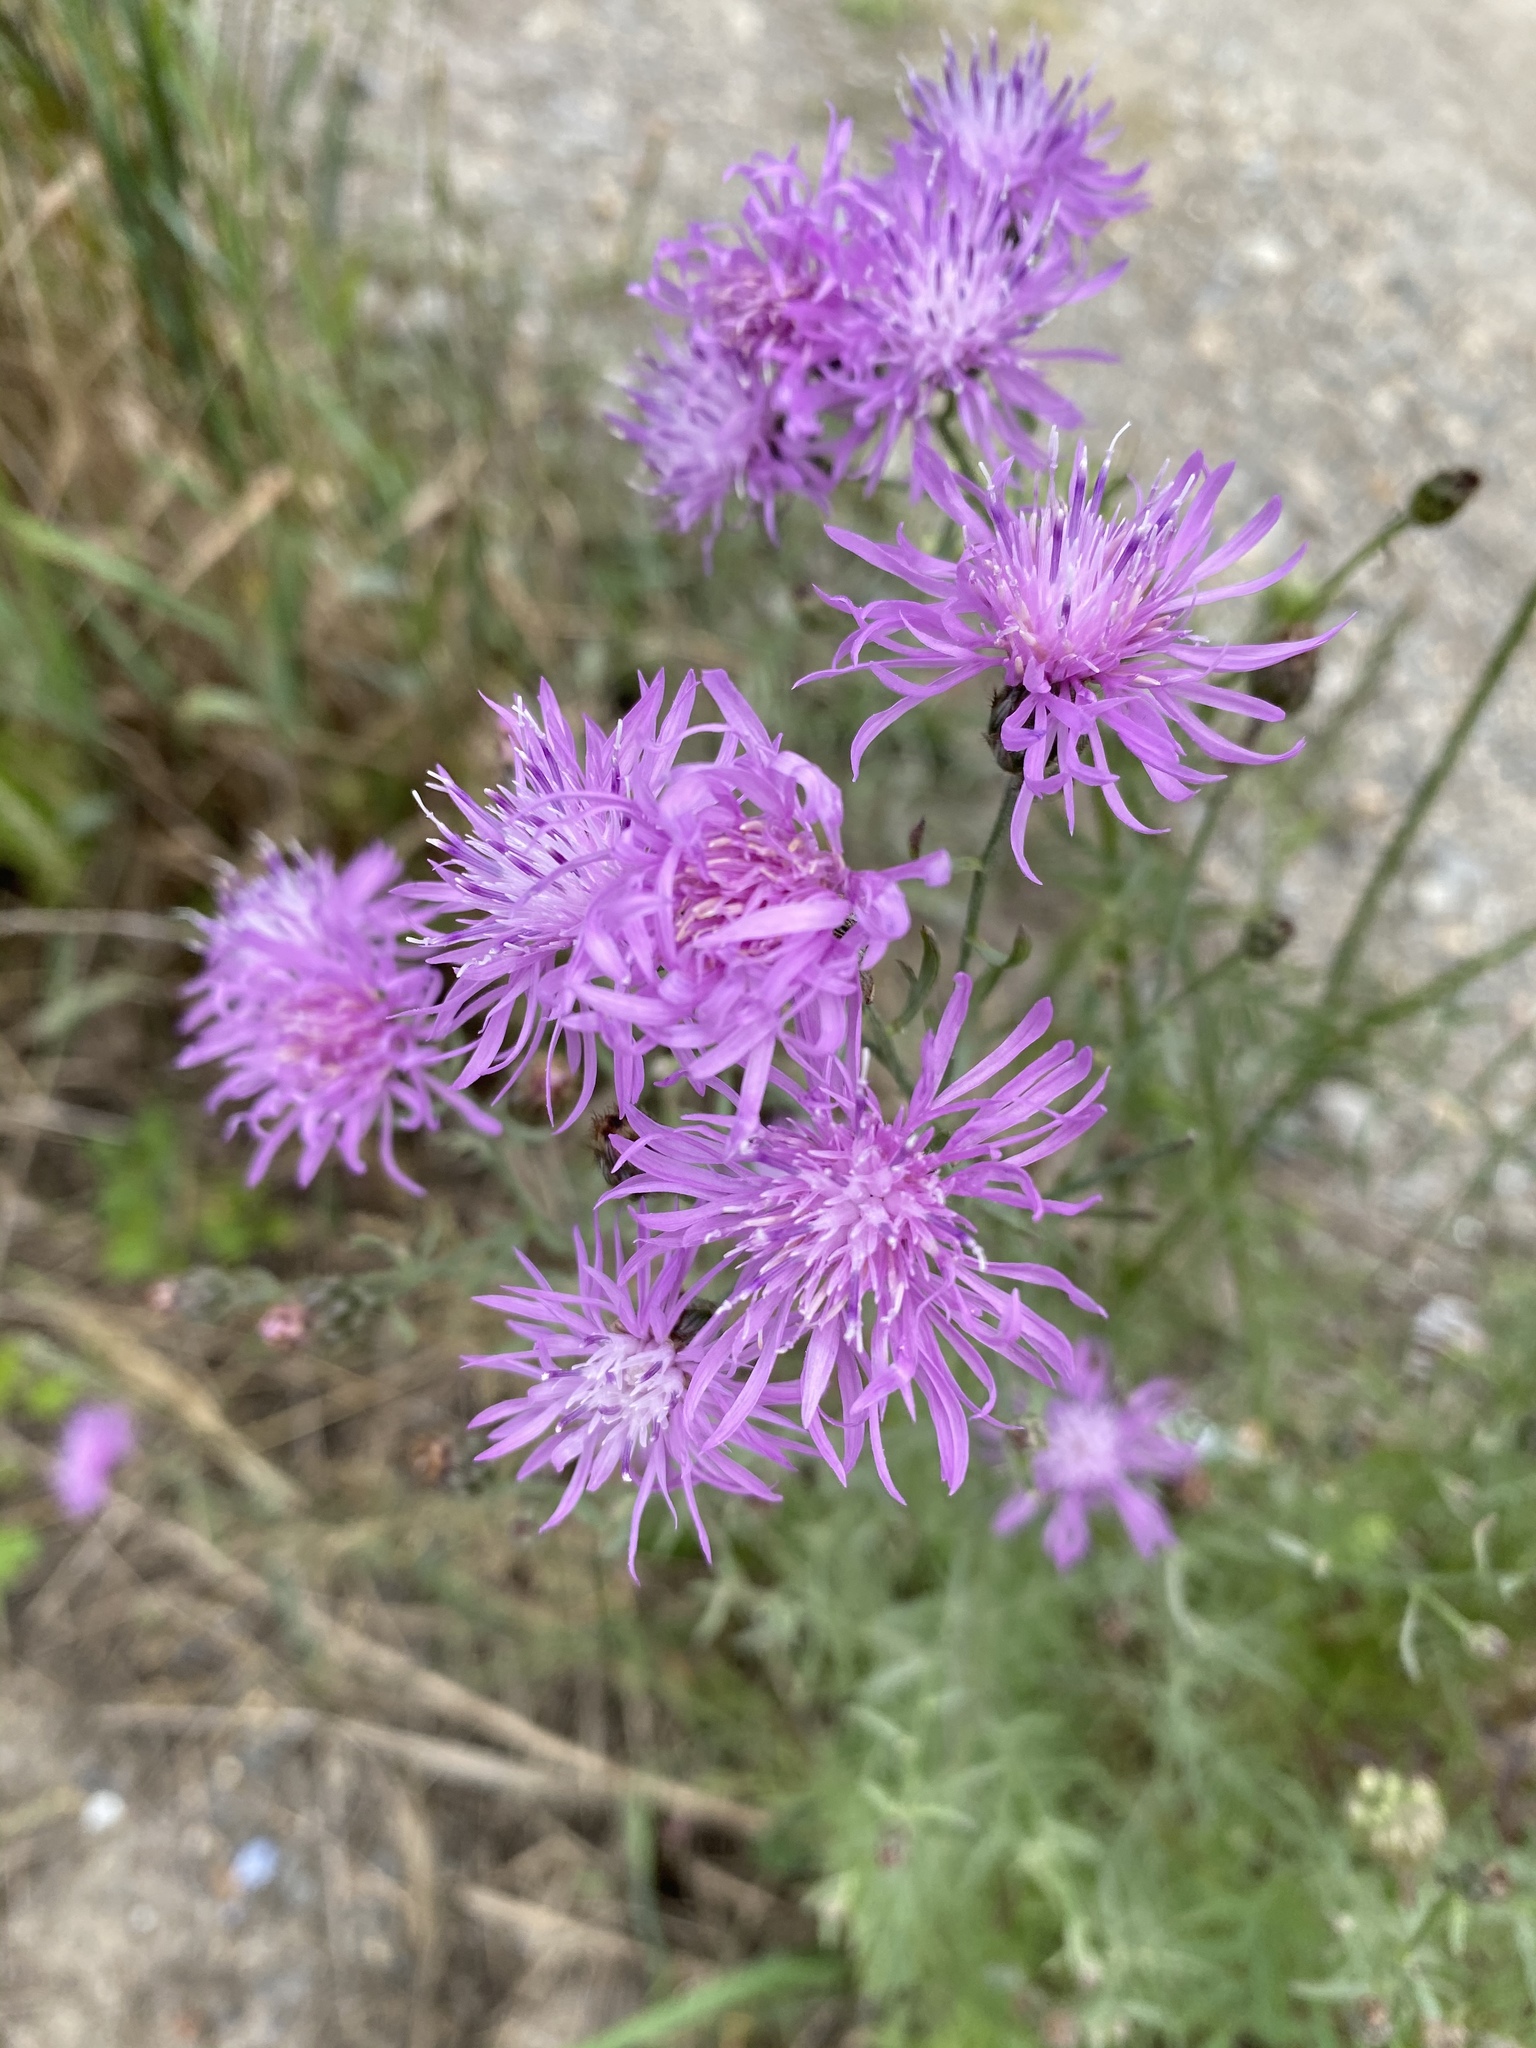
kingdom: Plantae
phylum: Tracheophyta
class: Magnoliopsida
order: Asterales
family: Asteraceae
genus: Centaurea
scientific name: Centaurea stoebe
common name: Spotted knapweed
